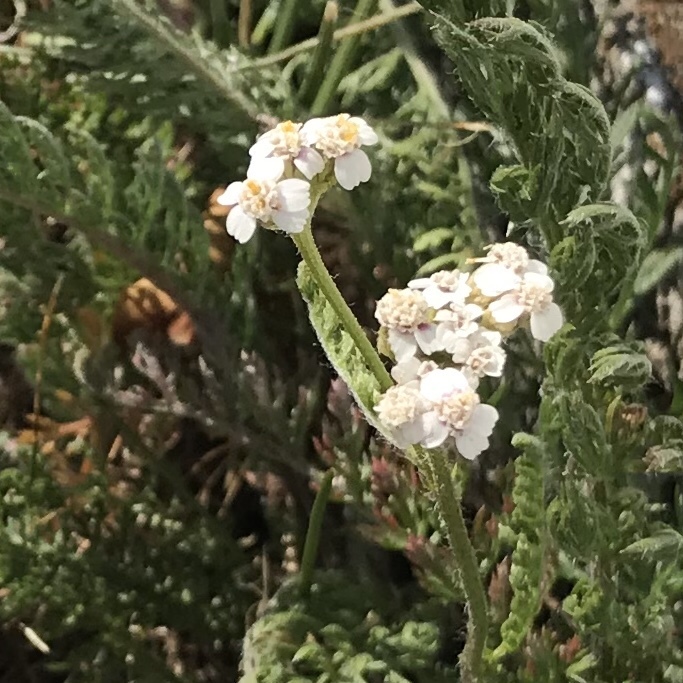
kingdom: Plantae
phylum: Tracheophyta
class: Magnoliopsida
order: Asterales
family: Asteraceae
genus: Achillea
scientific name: Achillea millefolium
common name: Yarrow
